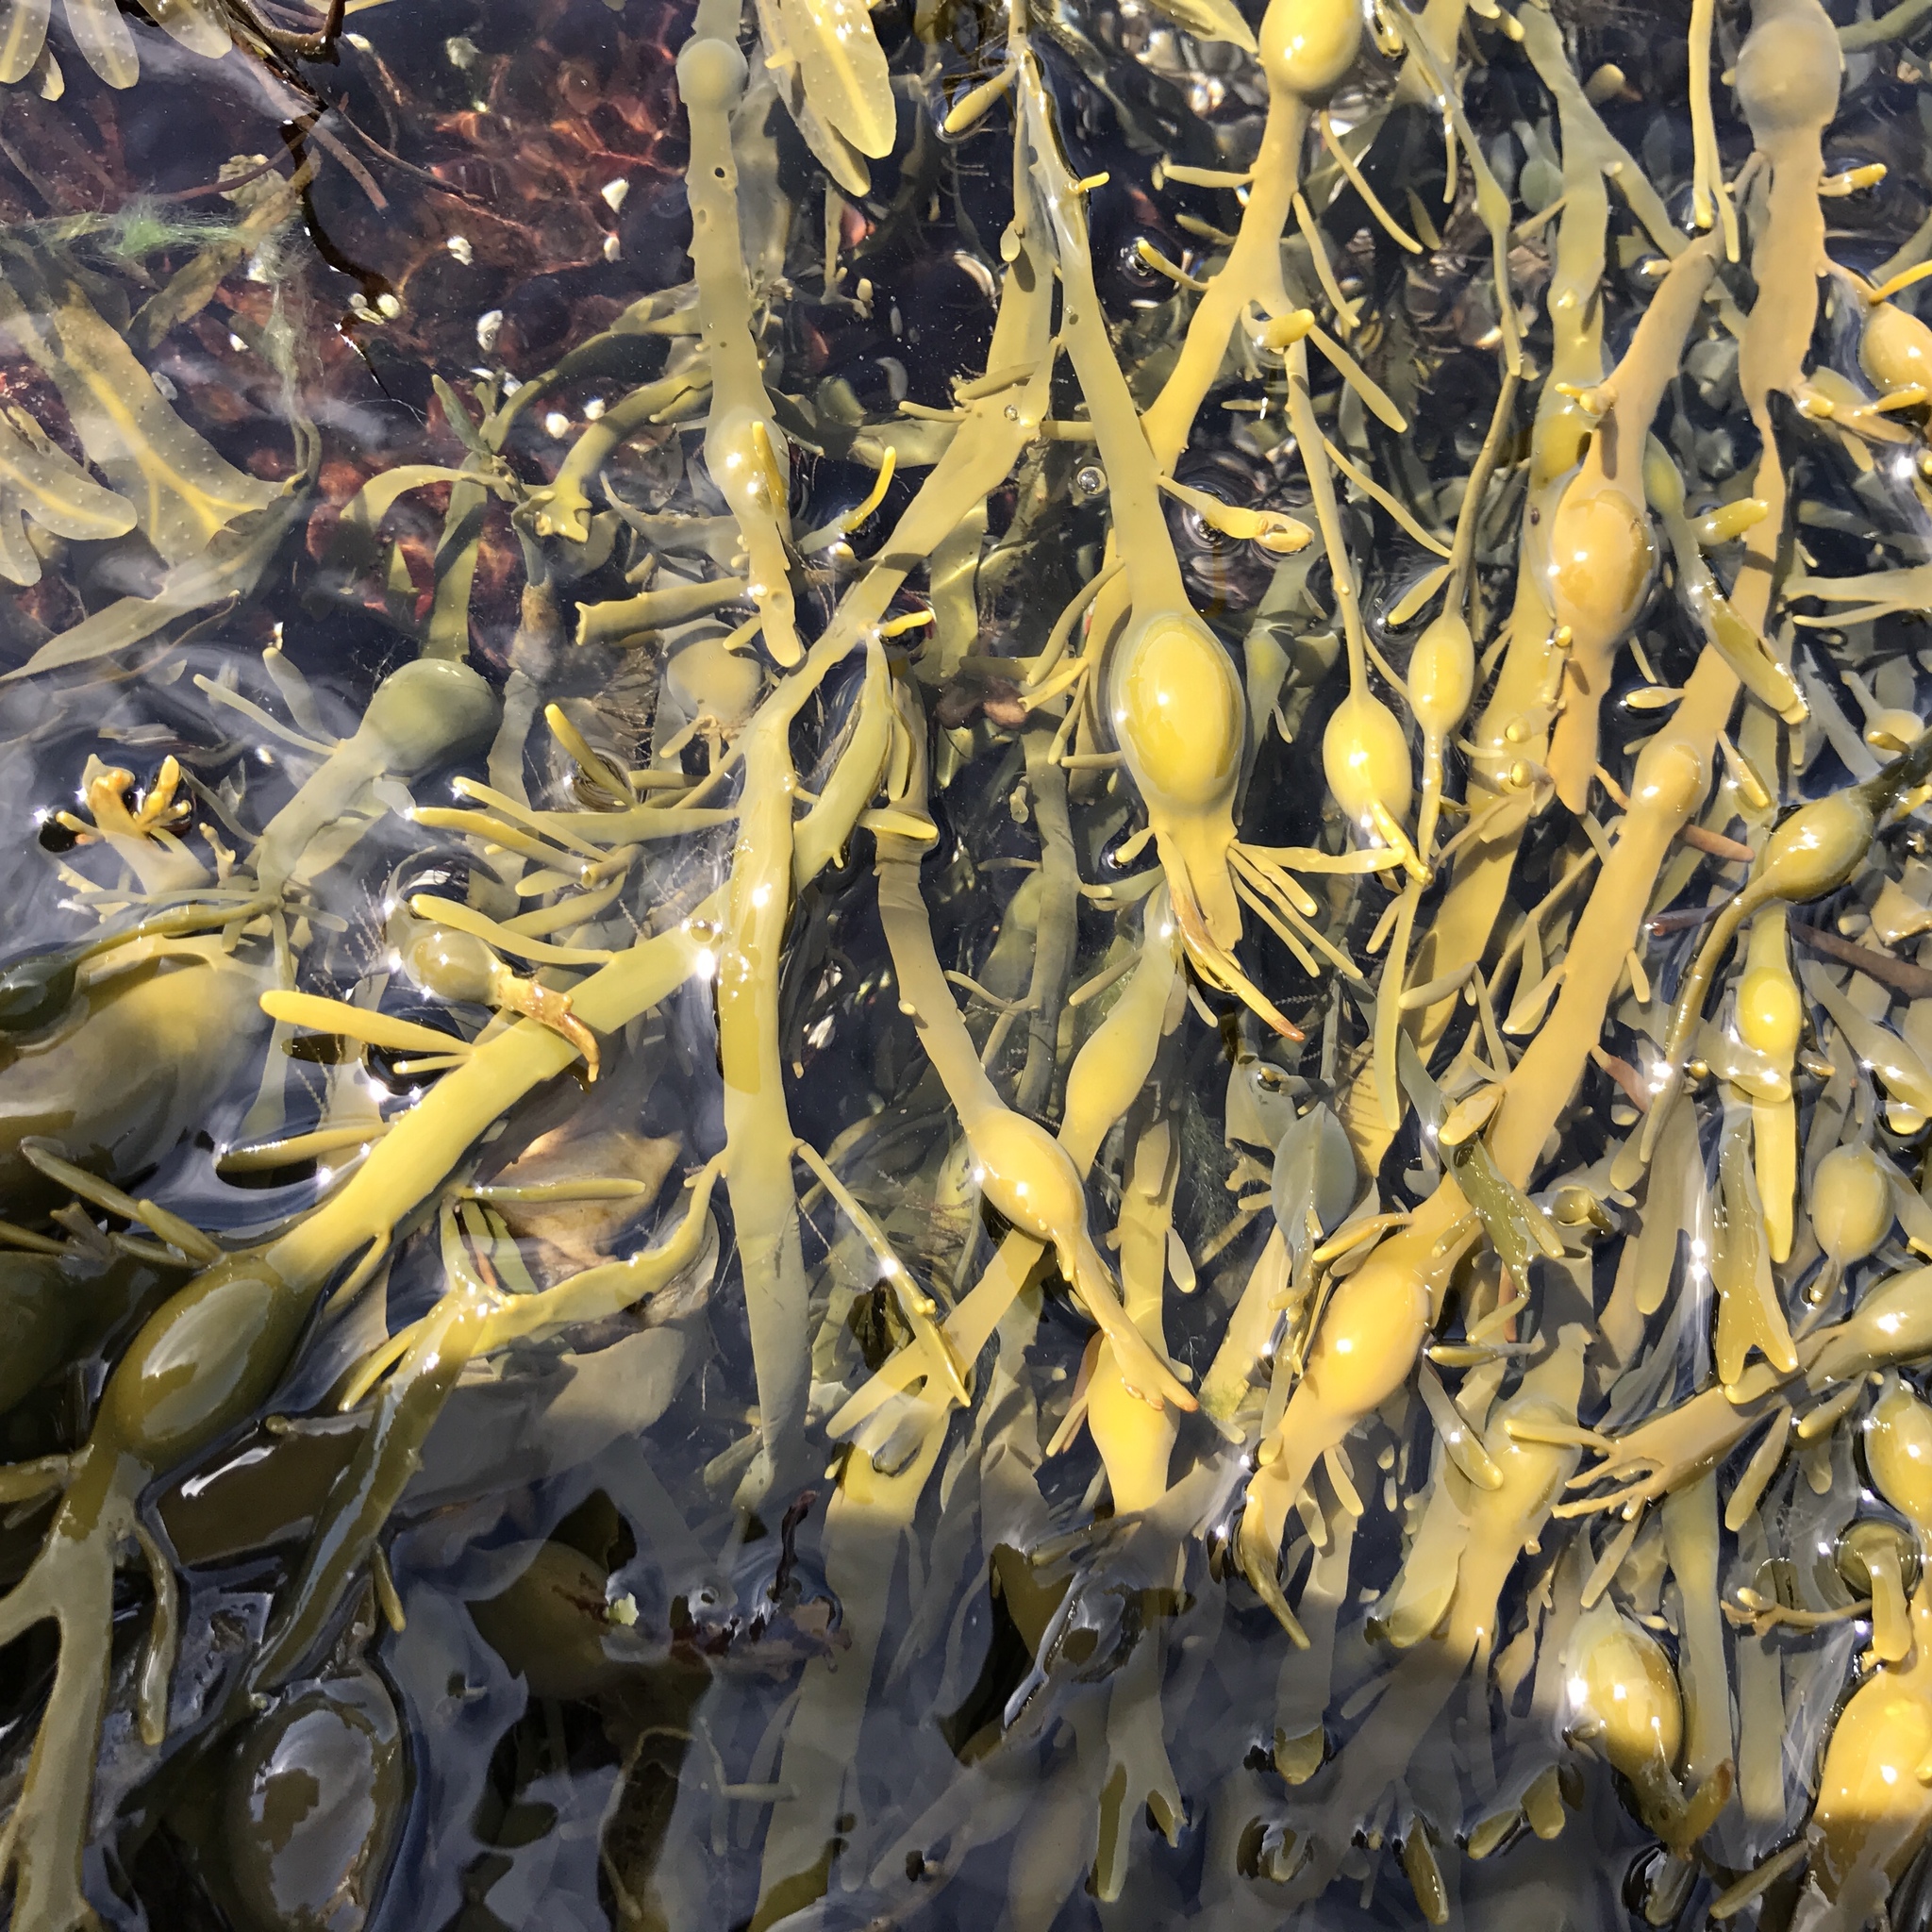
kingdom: Chromista
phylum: Ochrophyta
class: Phaeophyceae
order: Fucales
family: Fucaceae
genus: Ascophyllum
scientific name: Ascophyllum nodosum
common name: Knotted wrack
